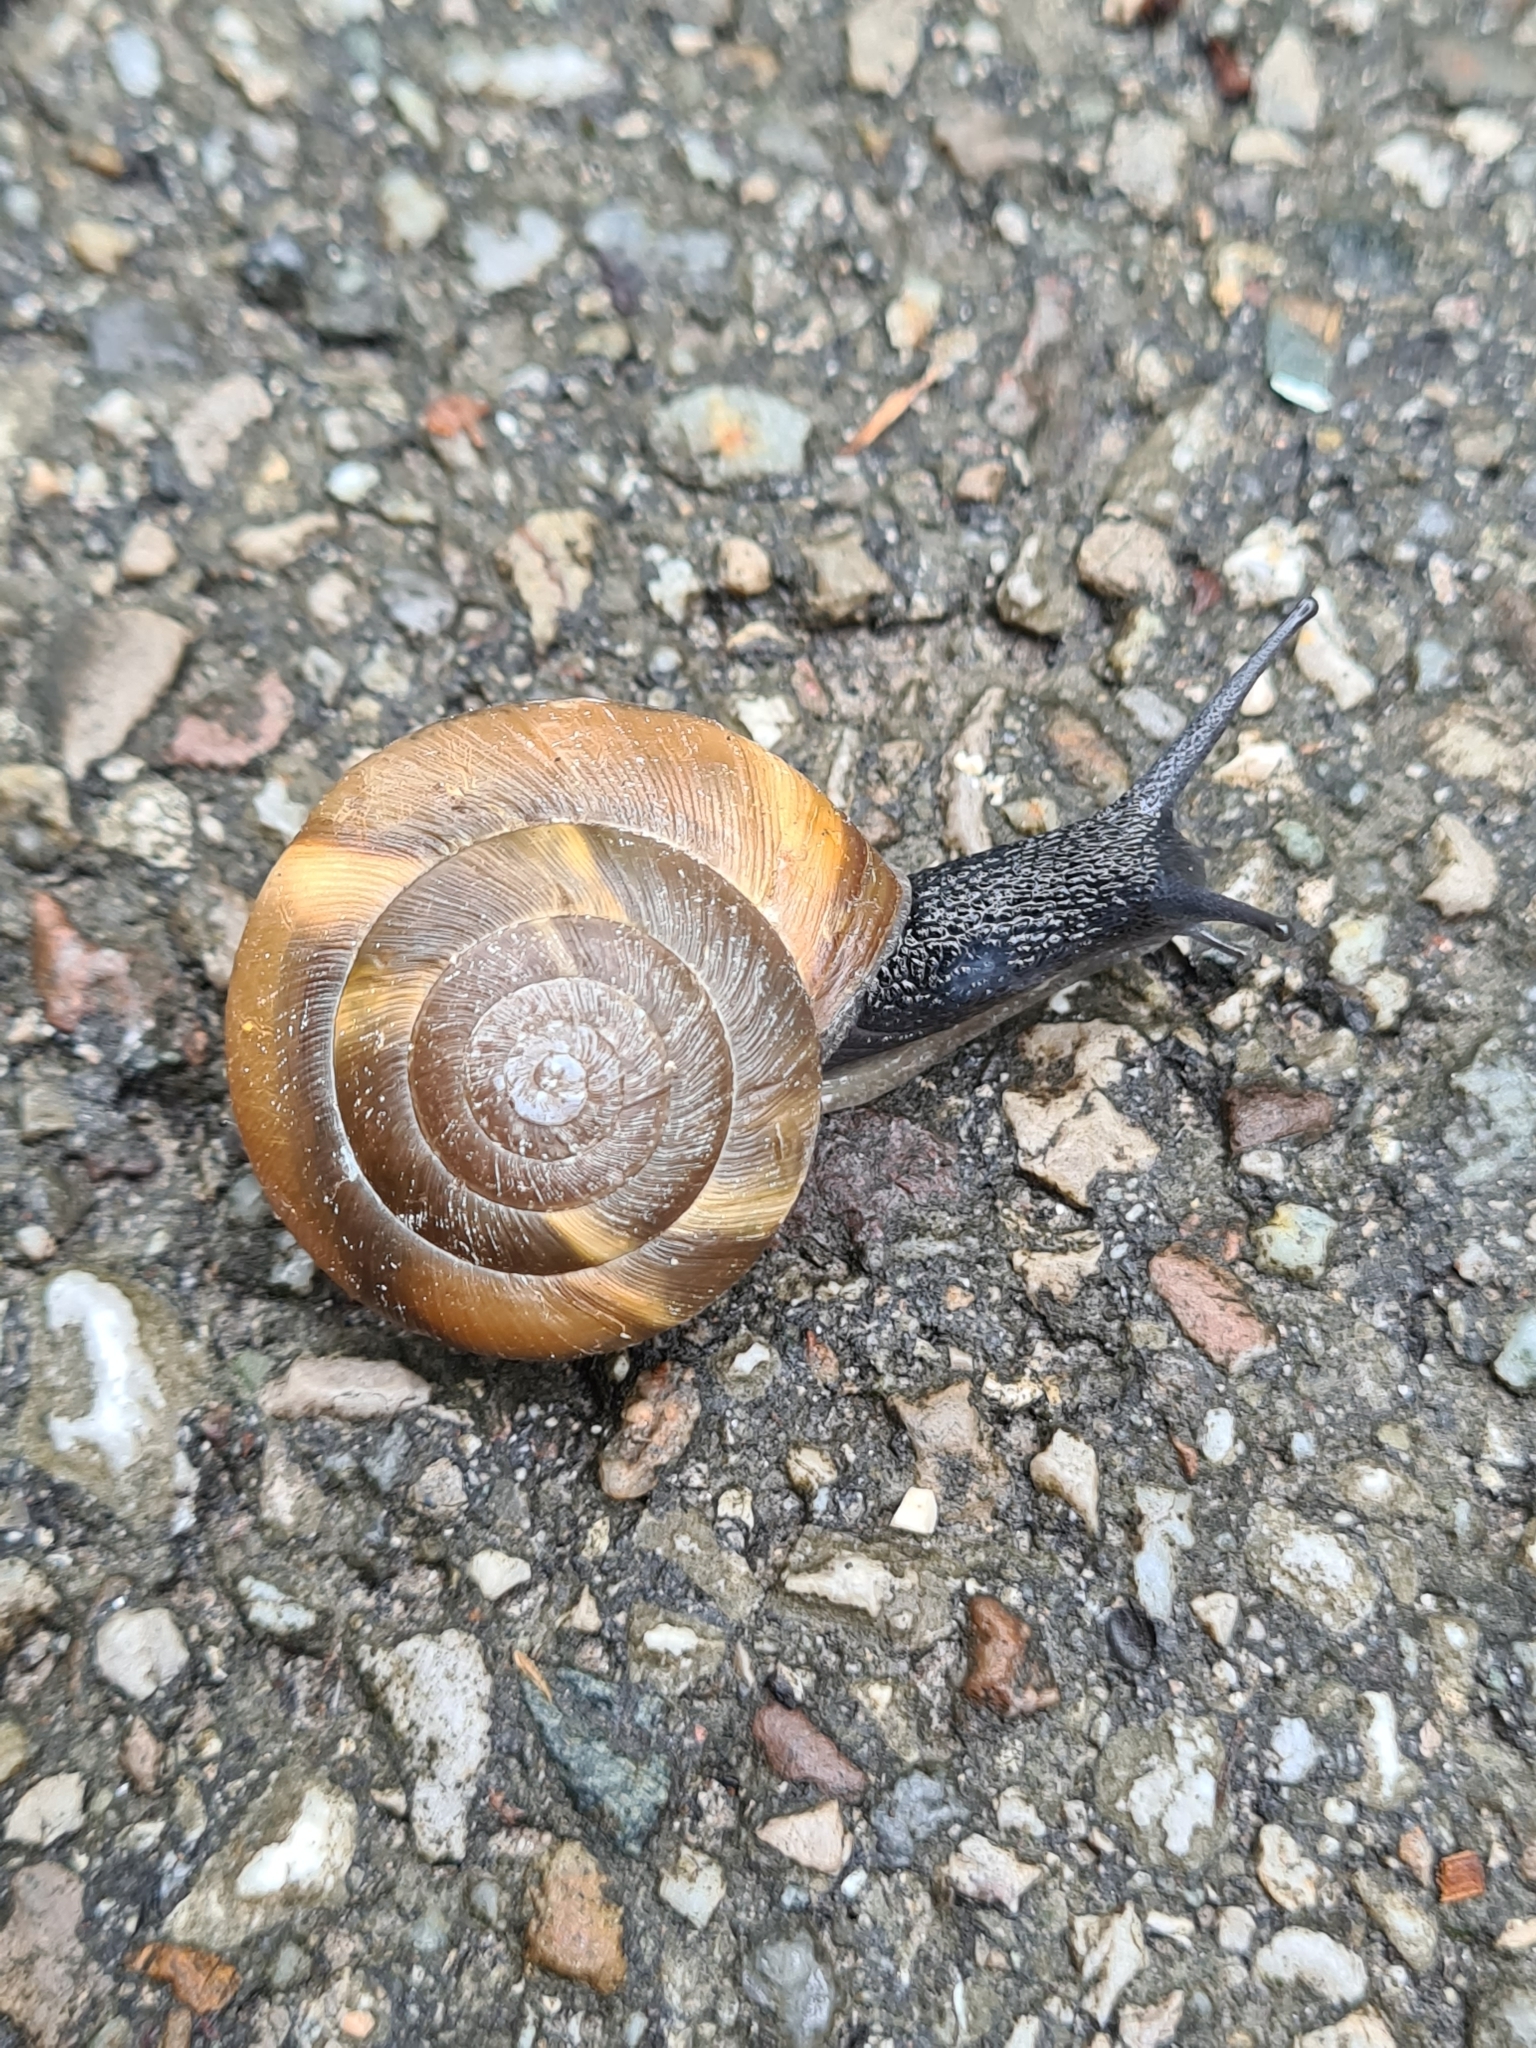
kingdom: Animalia
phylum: Mollusca
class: Gastropoda
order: Stylommatophora
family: Zonitidae
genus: Aegopis
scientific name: Aegopis verticillus
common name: Giant glass snail
